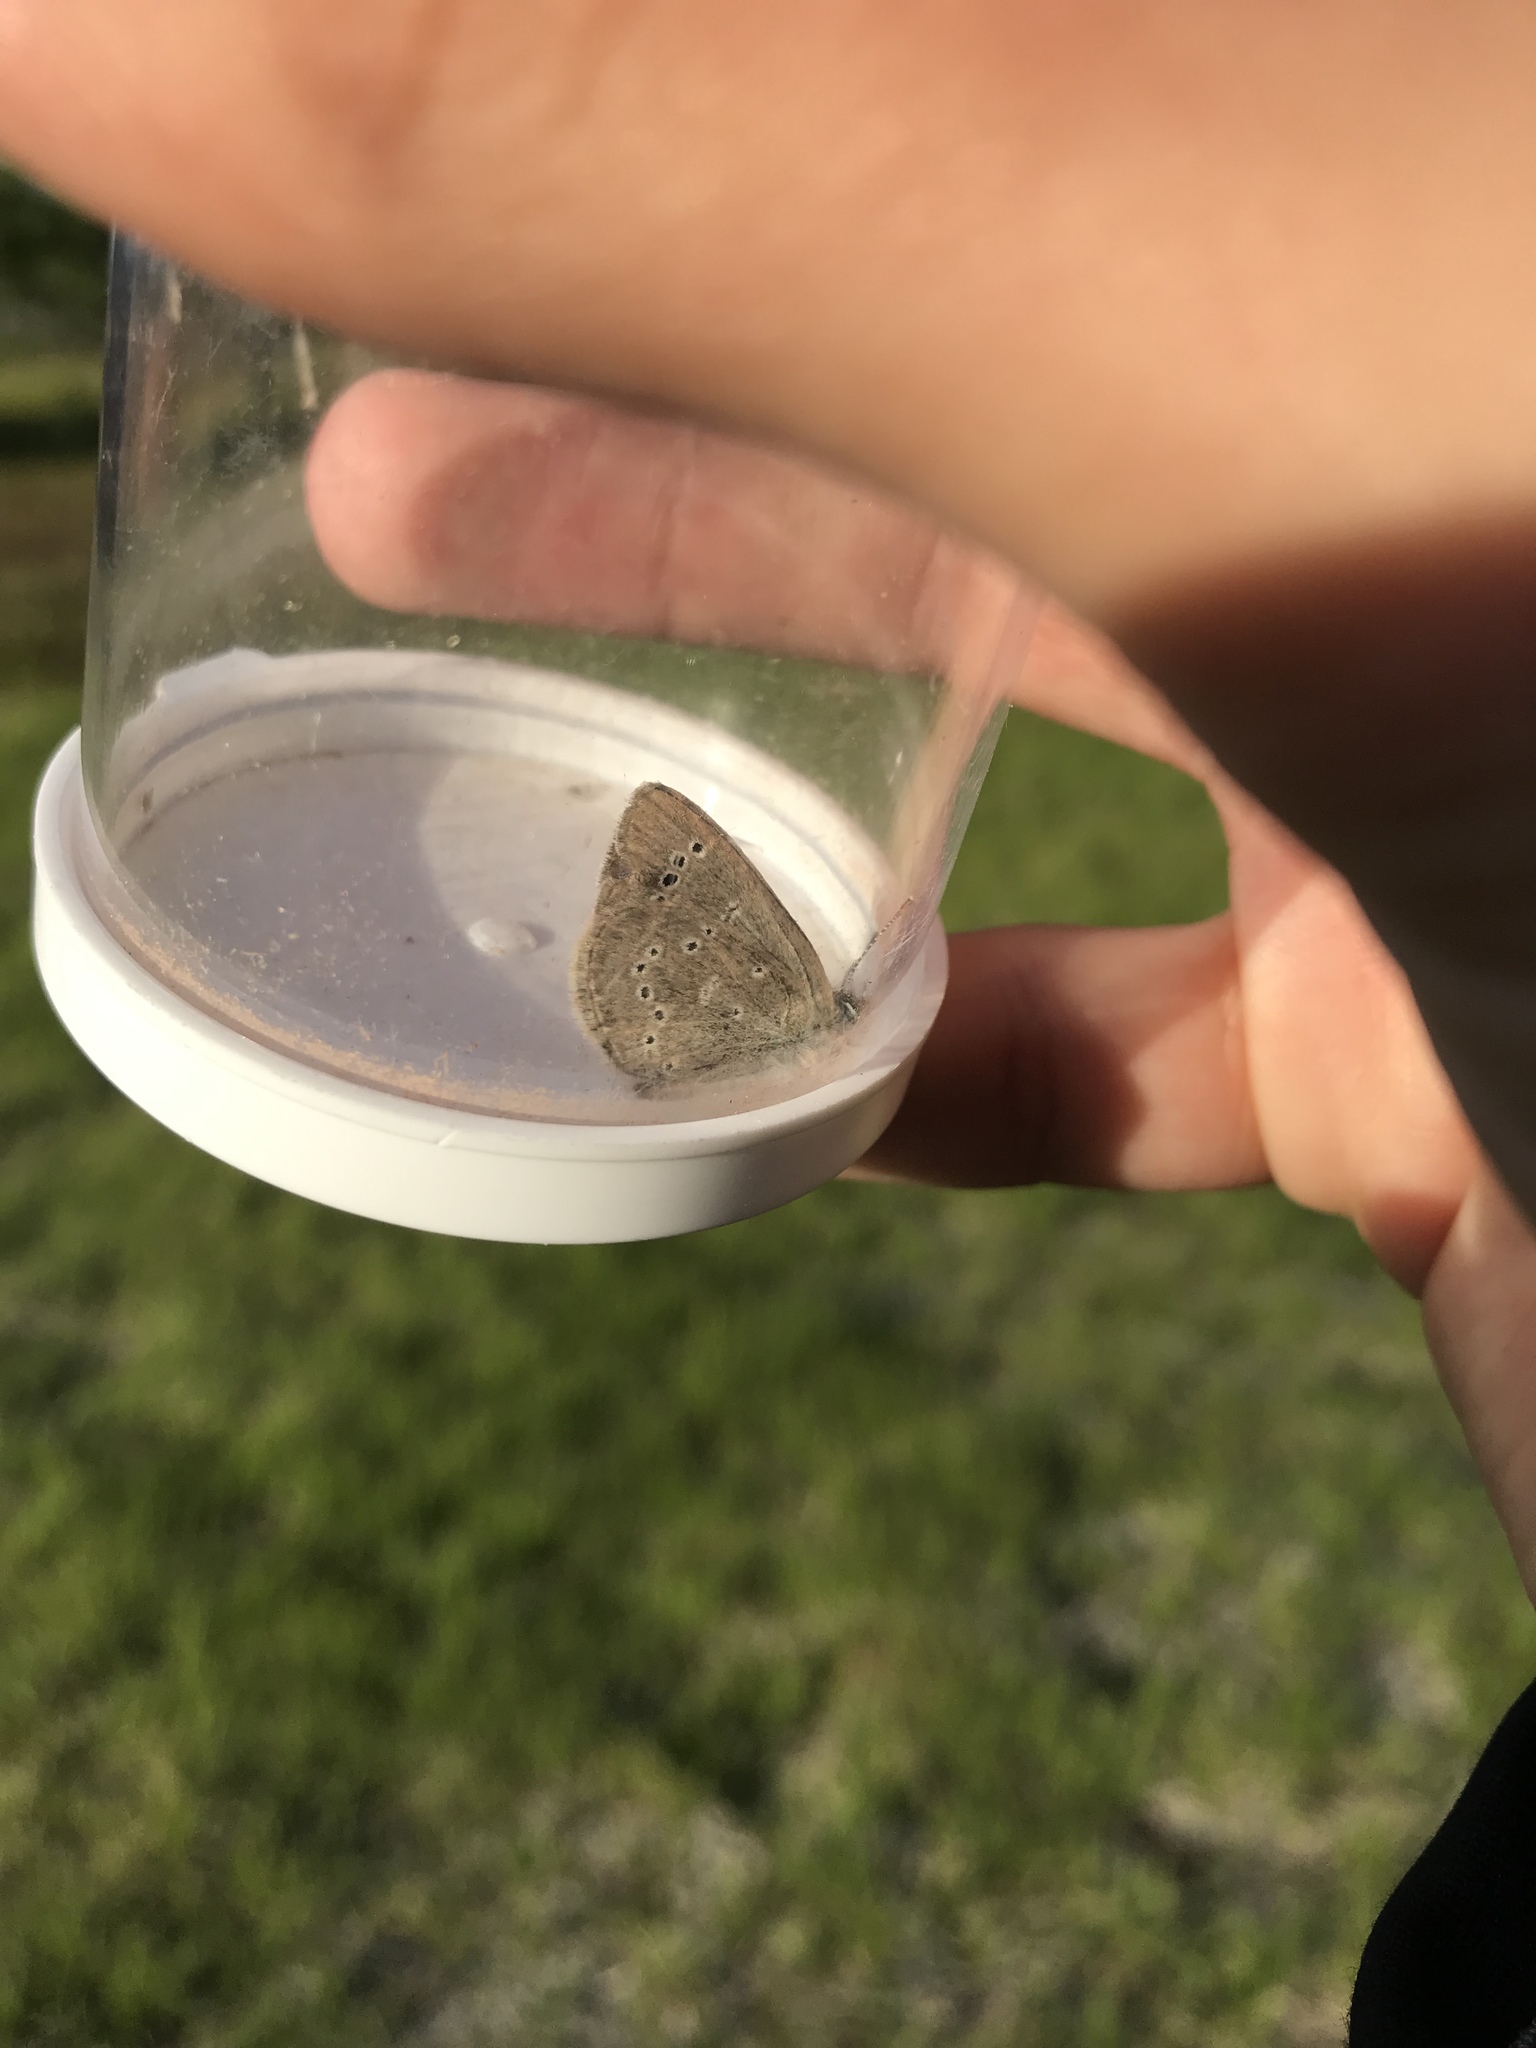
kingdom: Animalia
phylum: Arthropoda
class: Insecta
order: Lepidoptera
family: Lycaenidae
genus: Glaucopsyche
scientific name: Glaucopsyche lygdamus
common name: Silvery blue
